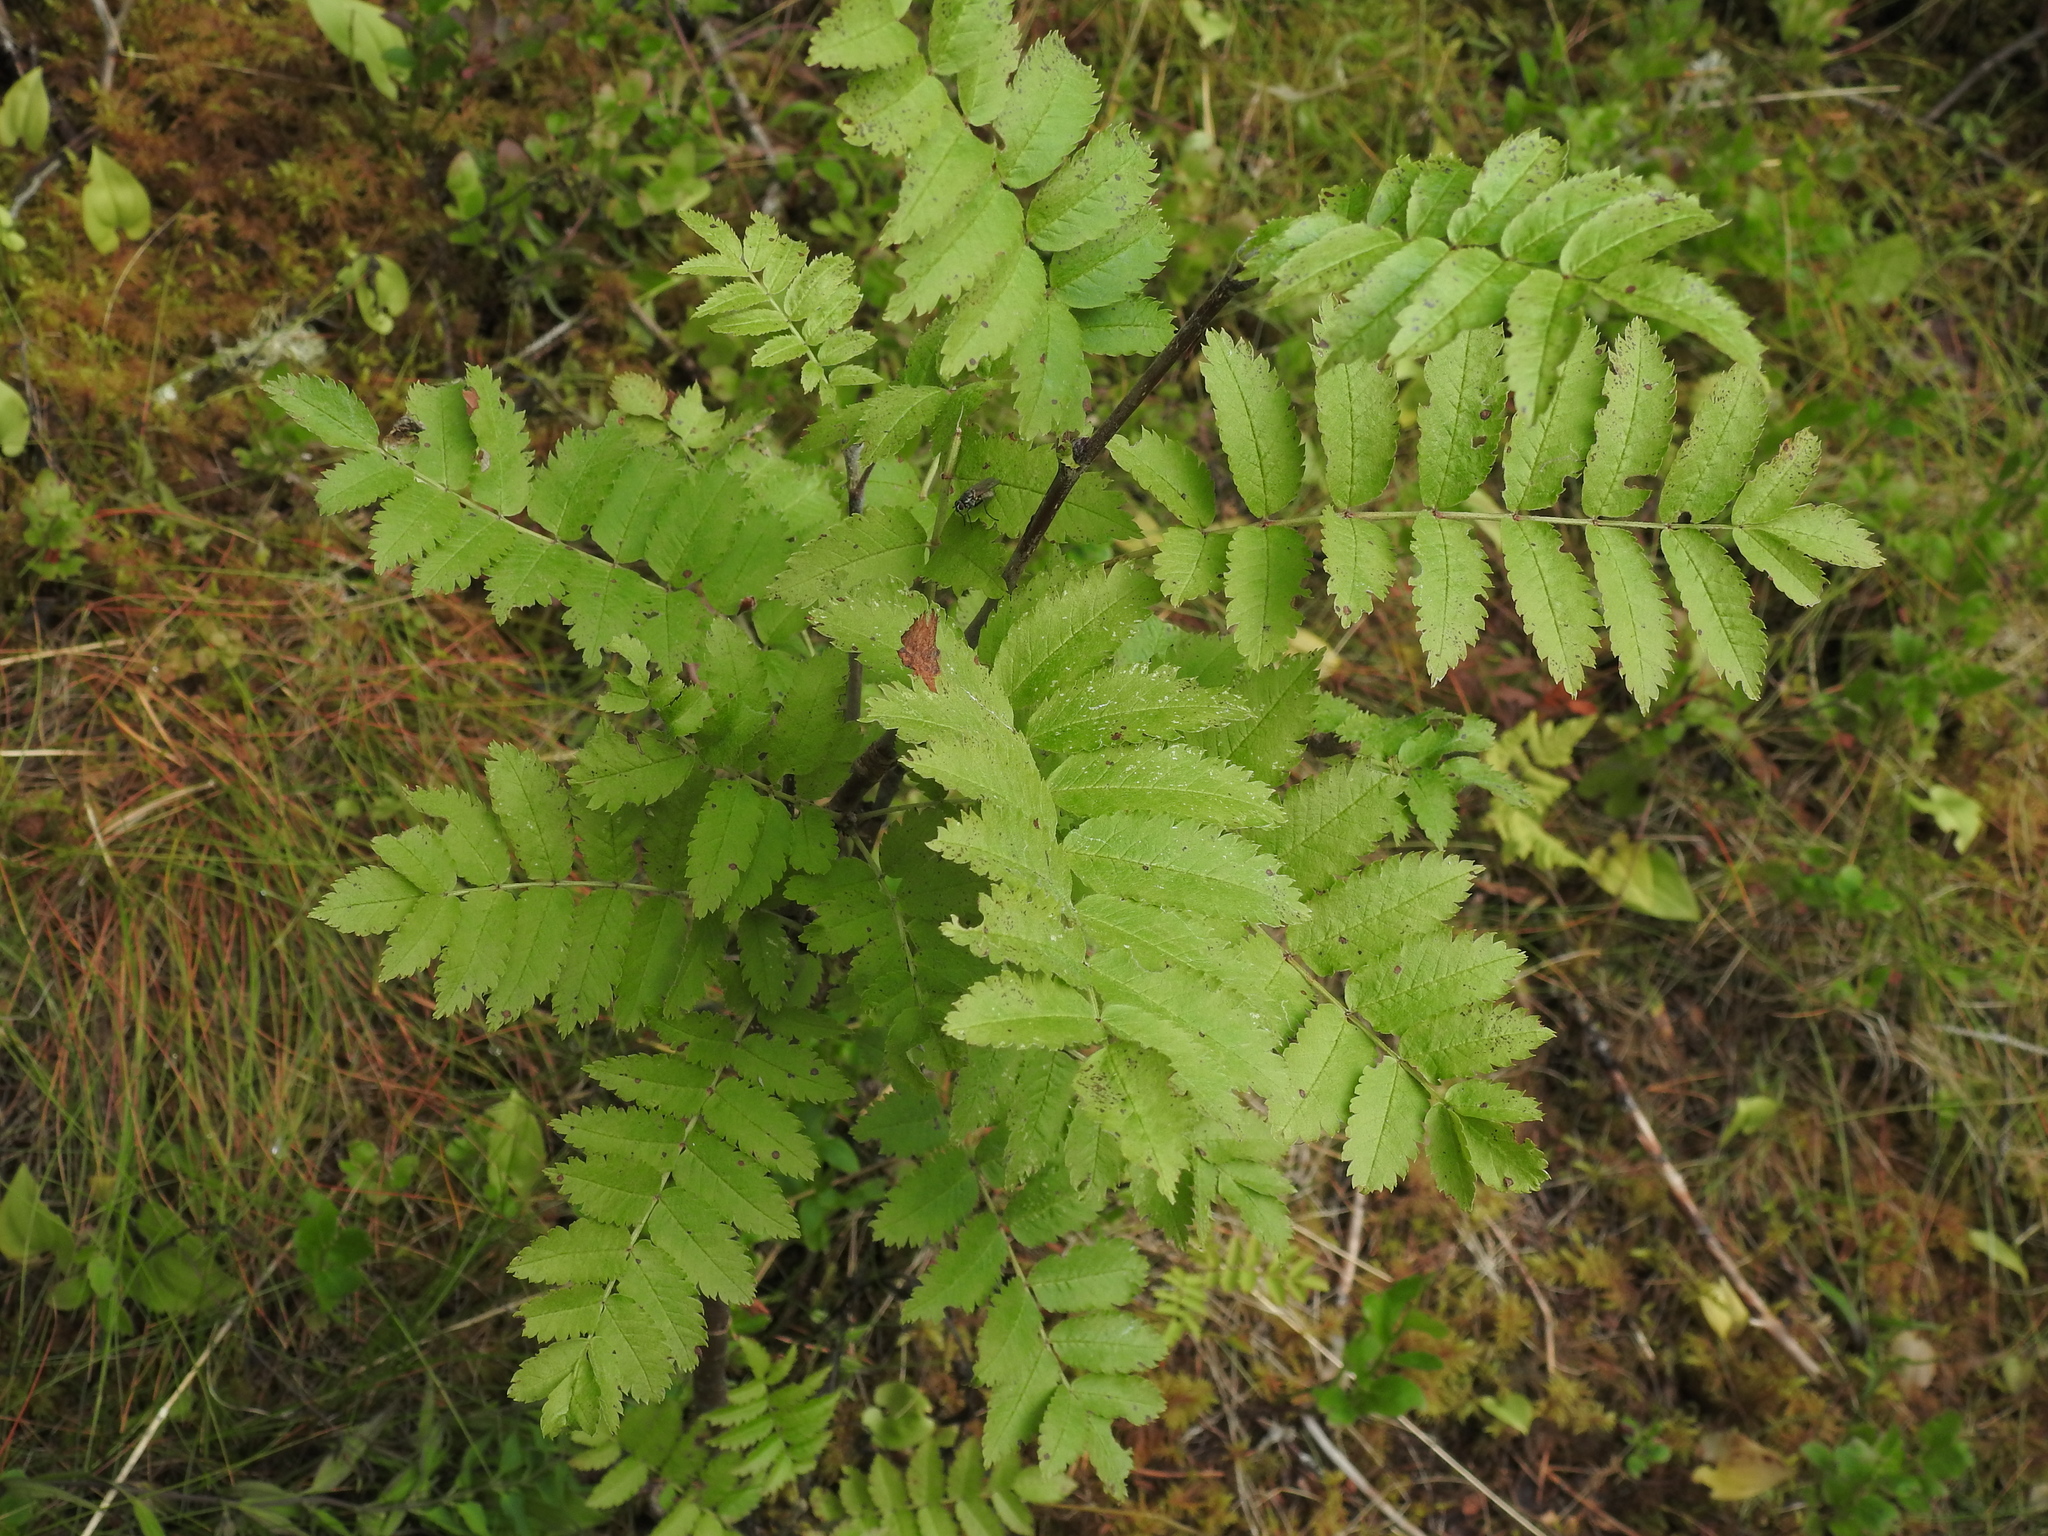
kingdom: Plantae
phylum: Tracheophyta
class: Magnoliopsida
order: Rosales
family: Rosaceae
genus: Sorbus
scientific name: Sorbus aucuparia
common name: Rowan
